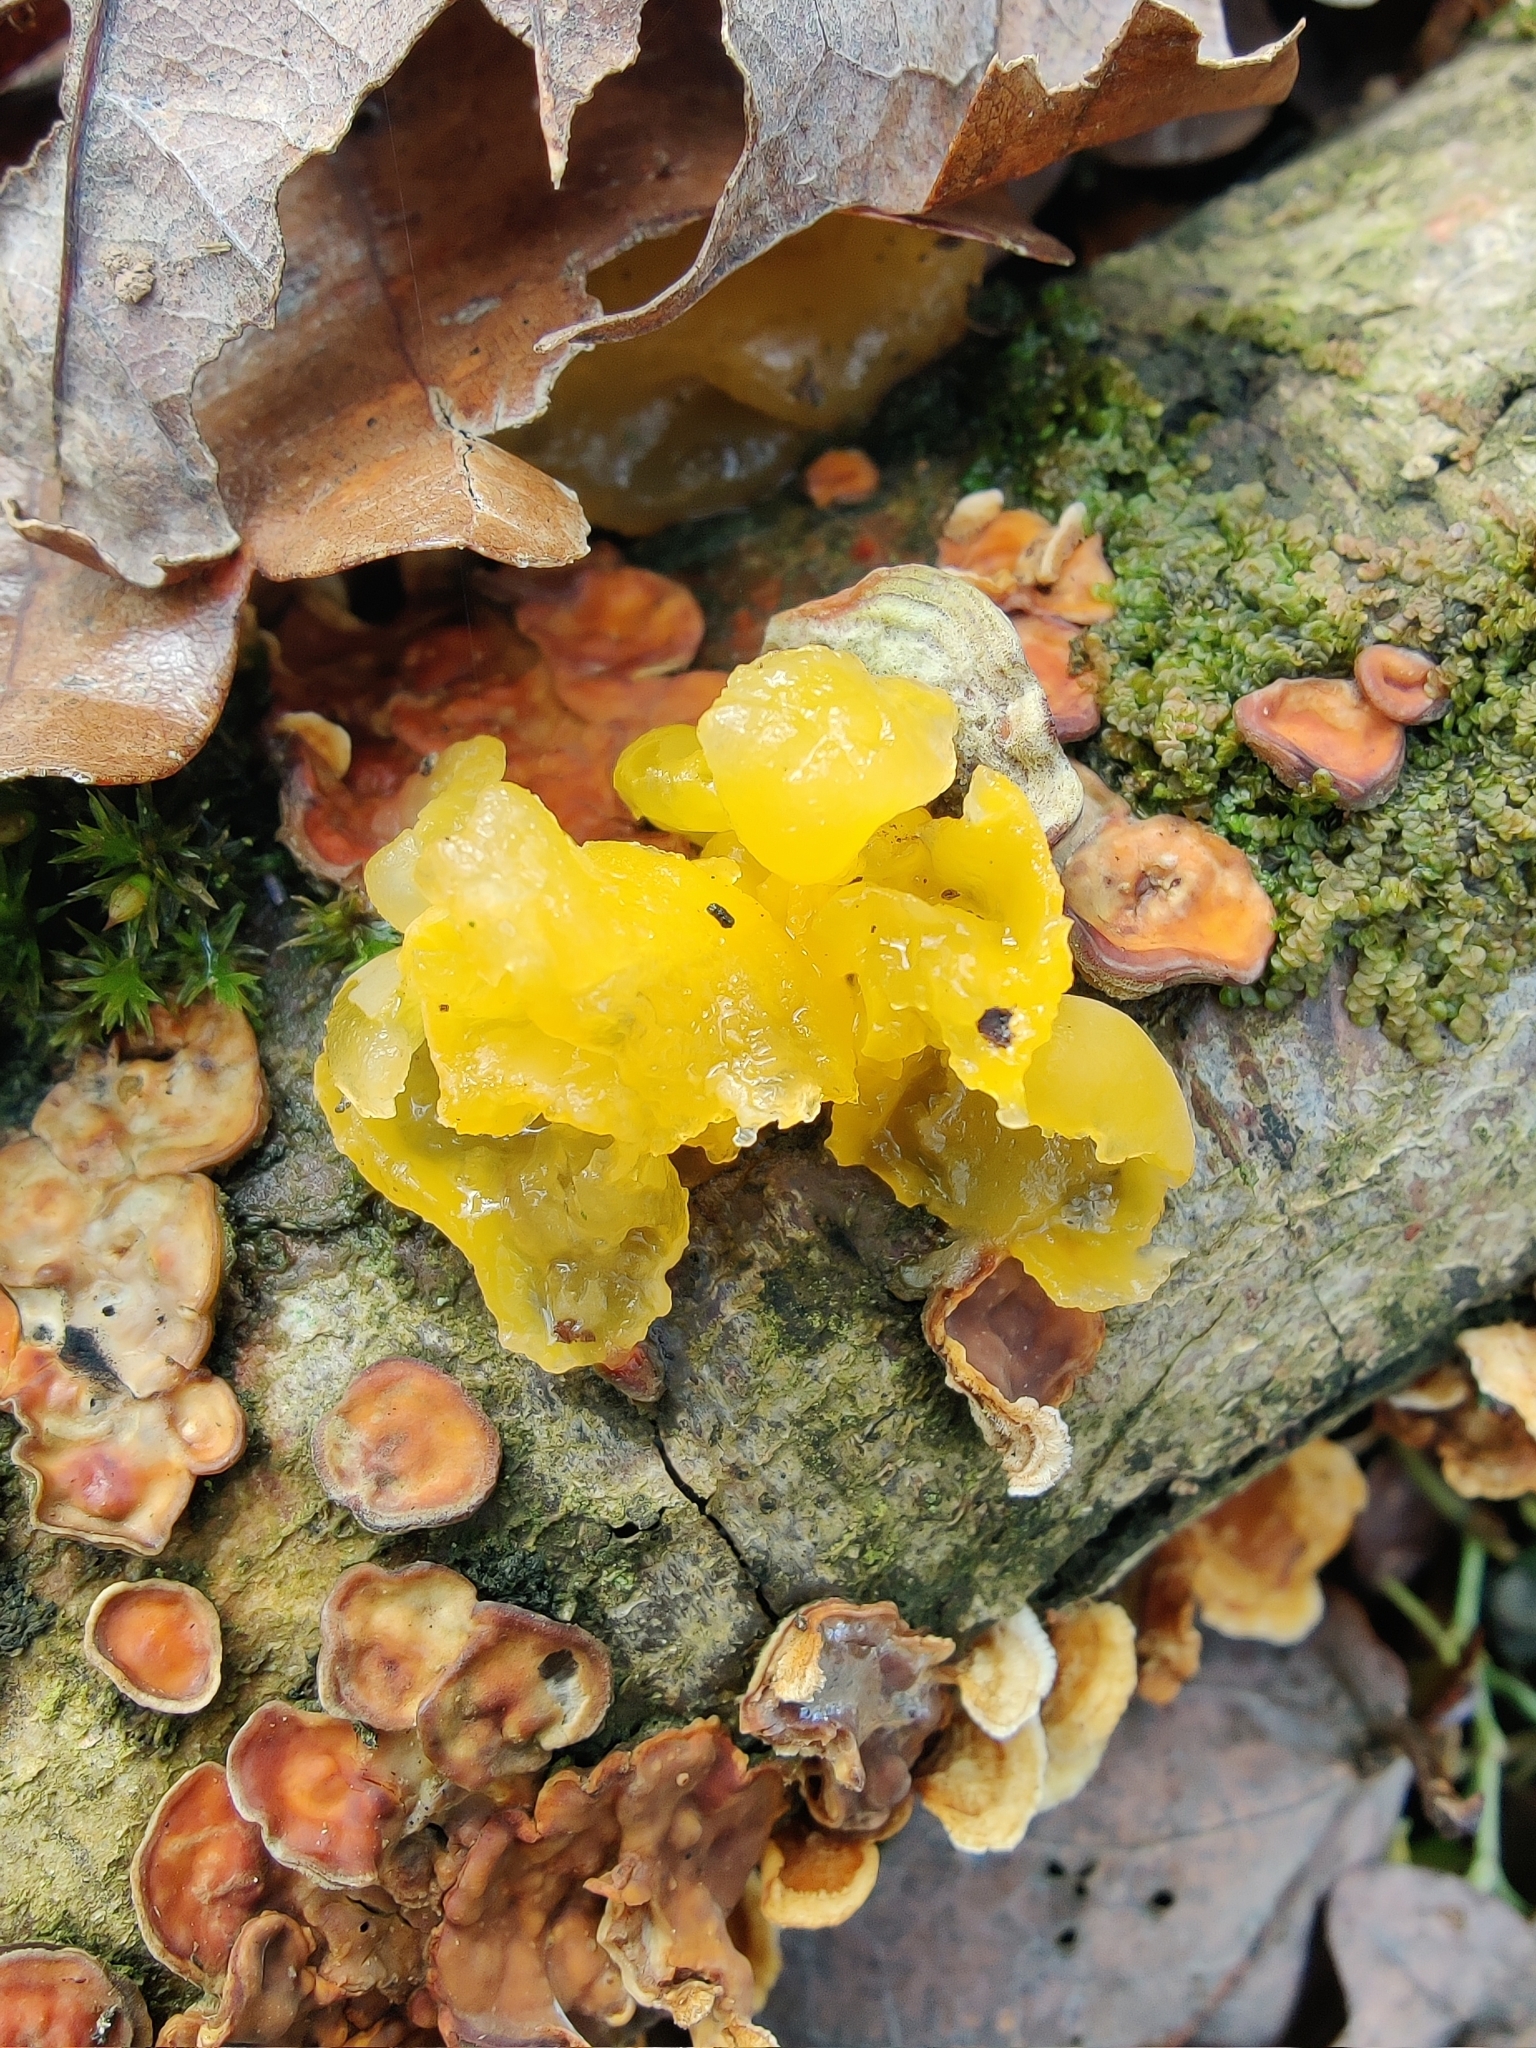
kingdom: Fungi
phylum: Basidiomycota
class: Tremellomycetes
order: Tremellales
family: Naemateliaceae
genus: Naematelia
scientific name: Naematelia aurantia
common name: Golden ear
